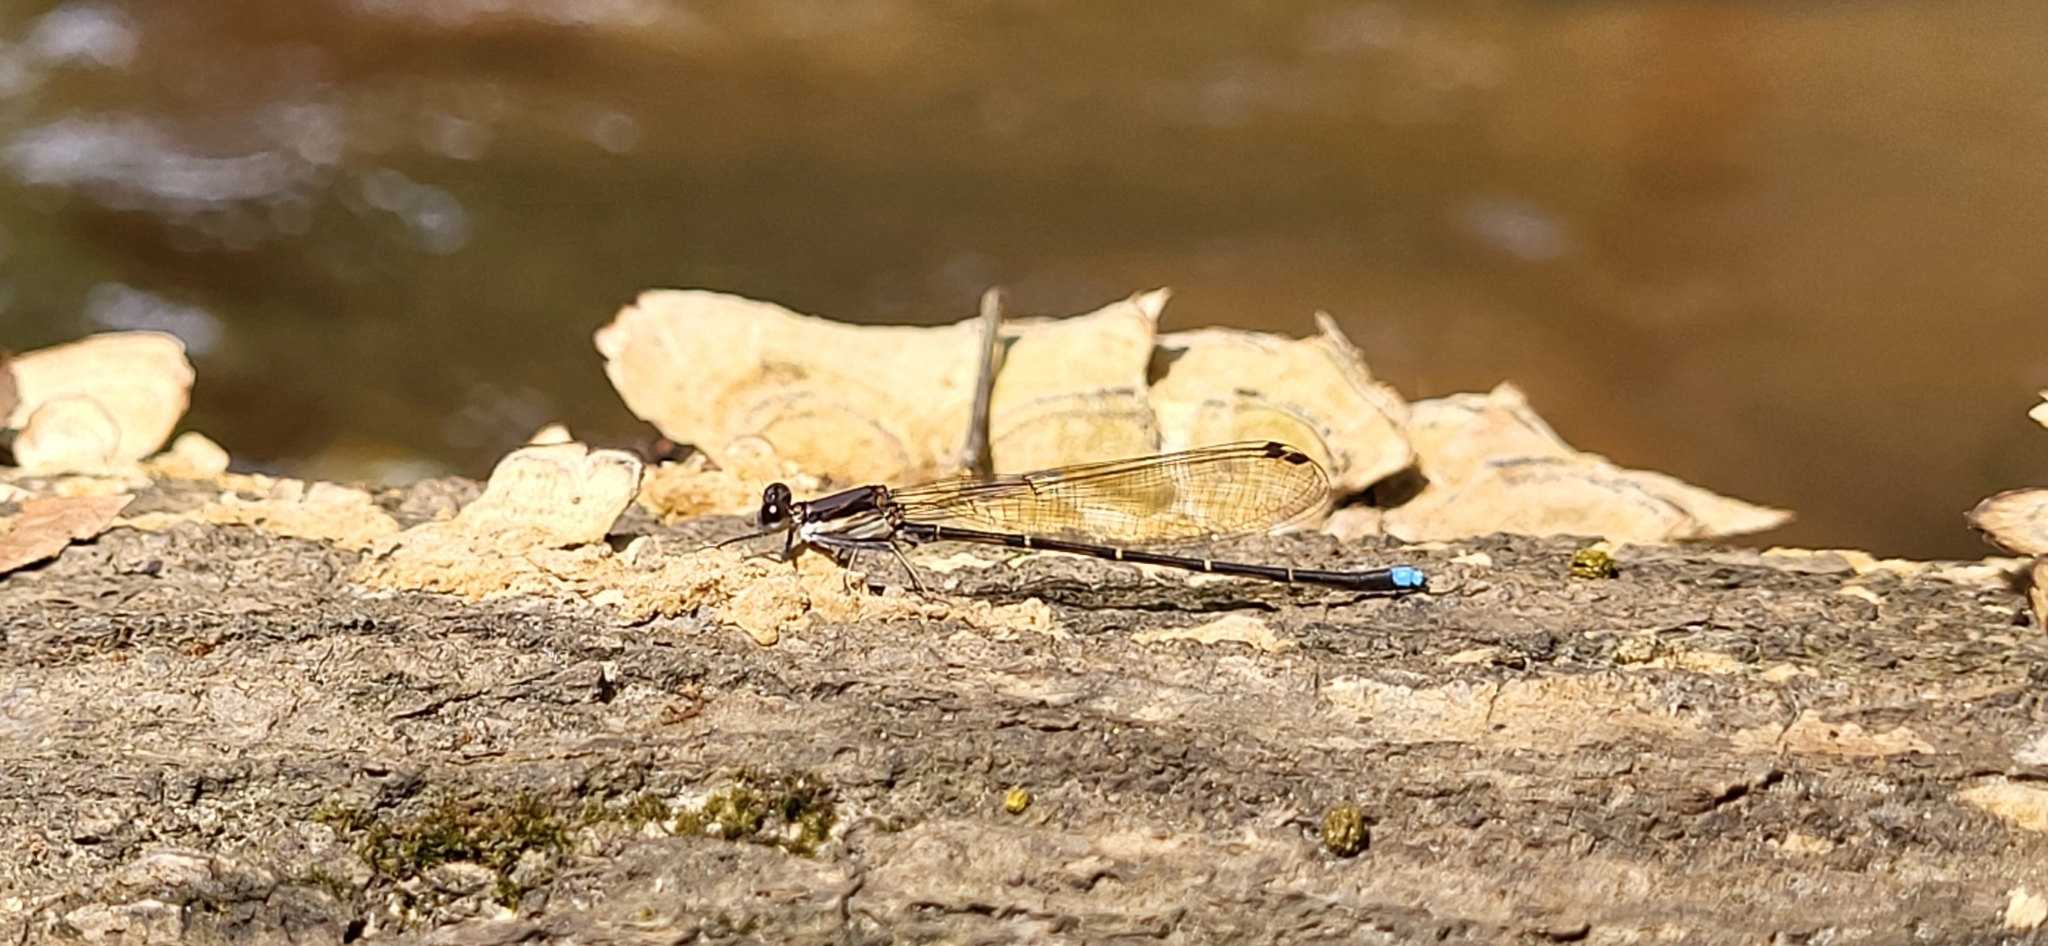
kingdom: Animalia
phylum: Arthropoda
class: Insecta
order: Odonata
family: Coenagrionidae
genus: Argia
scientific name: Argia tibialis
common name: Blue-tipped dancer
